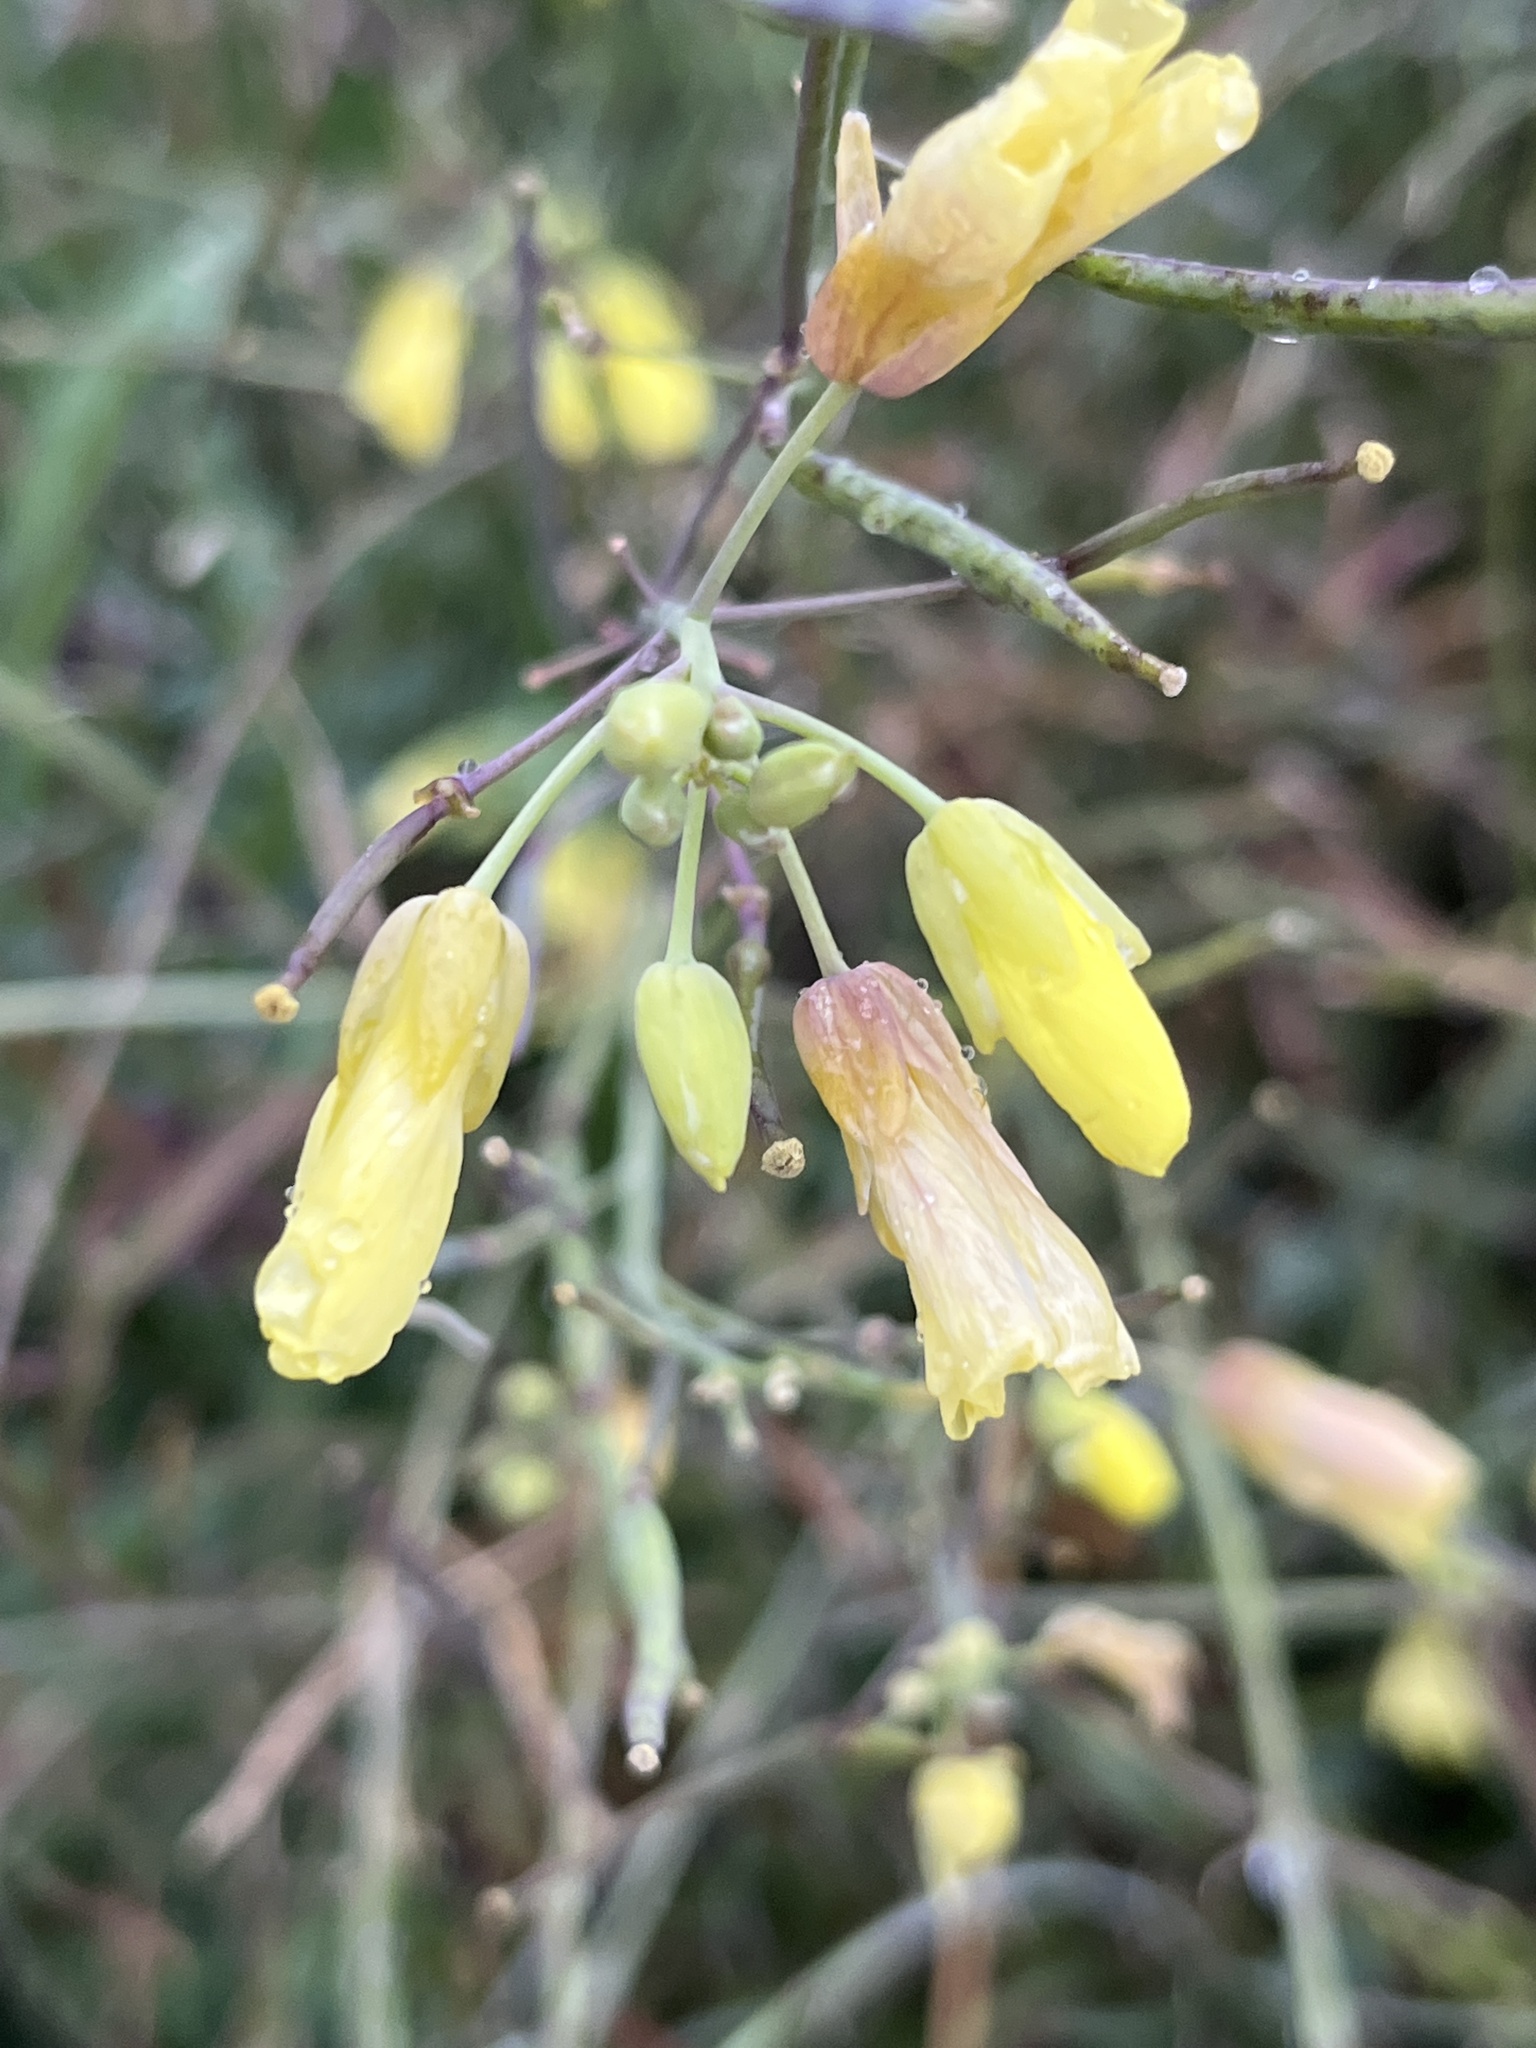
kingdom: Plantae
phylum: Tracheophyta
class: Magnoliopsida
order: Brassicales
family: Brassicaceae
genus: Diplotaxis
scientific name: Diplotaxis tenuifolia
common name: Perennial wall-rocket
